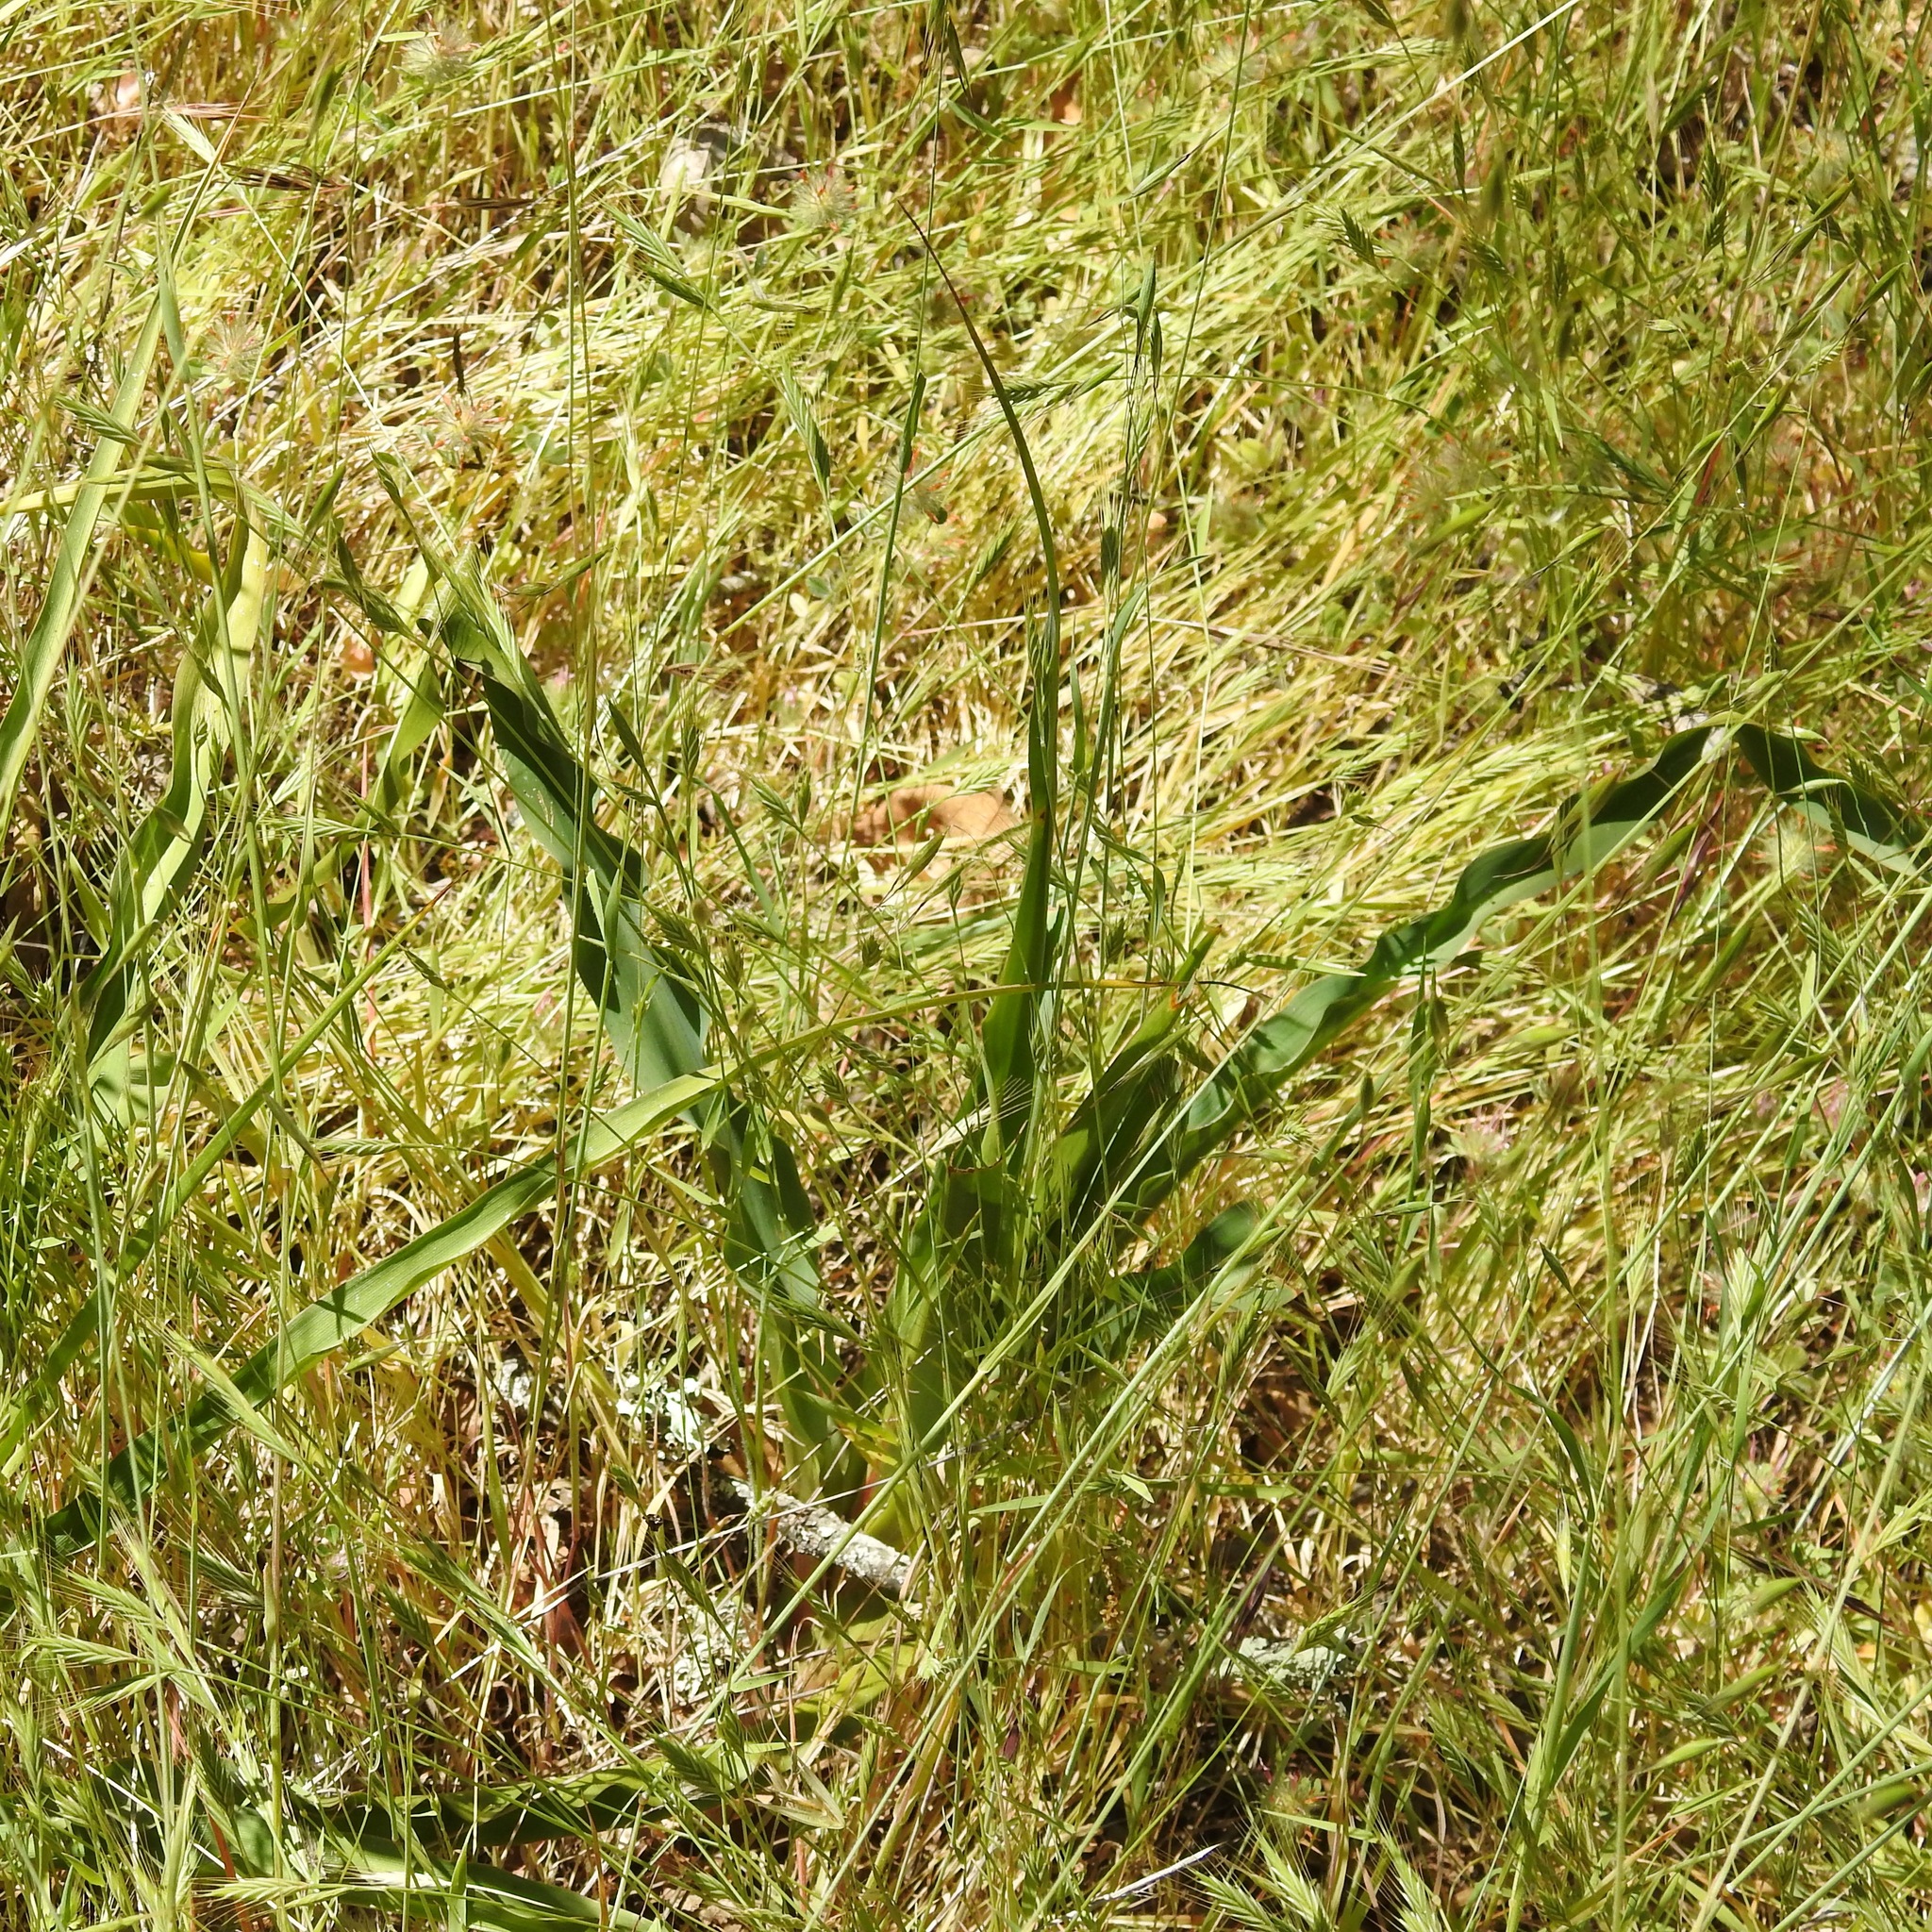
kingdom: Plantae
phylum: Tracheophyta
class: Liliopsida
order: Asparagales
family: Asparagaceae
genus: Chlorogalum
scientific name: Chlorogalum pomeridianum
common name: Amole
